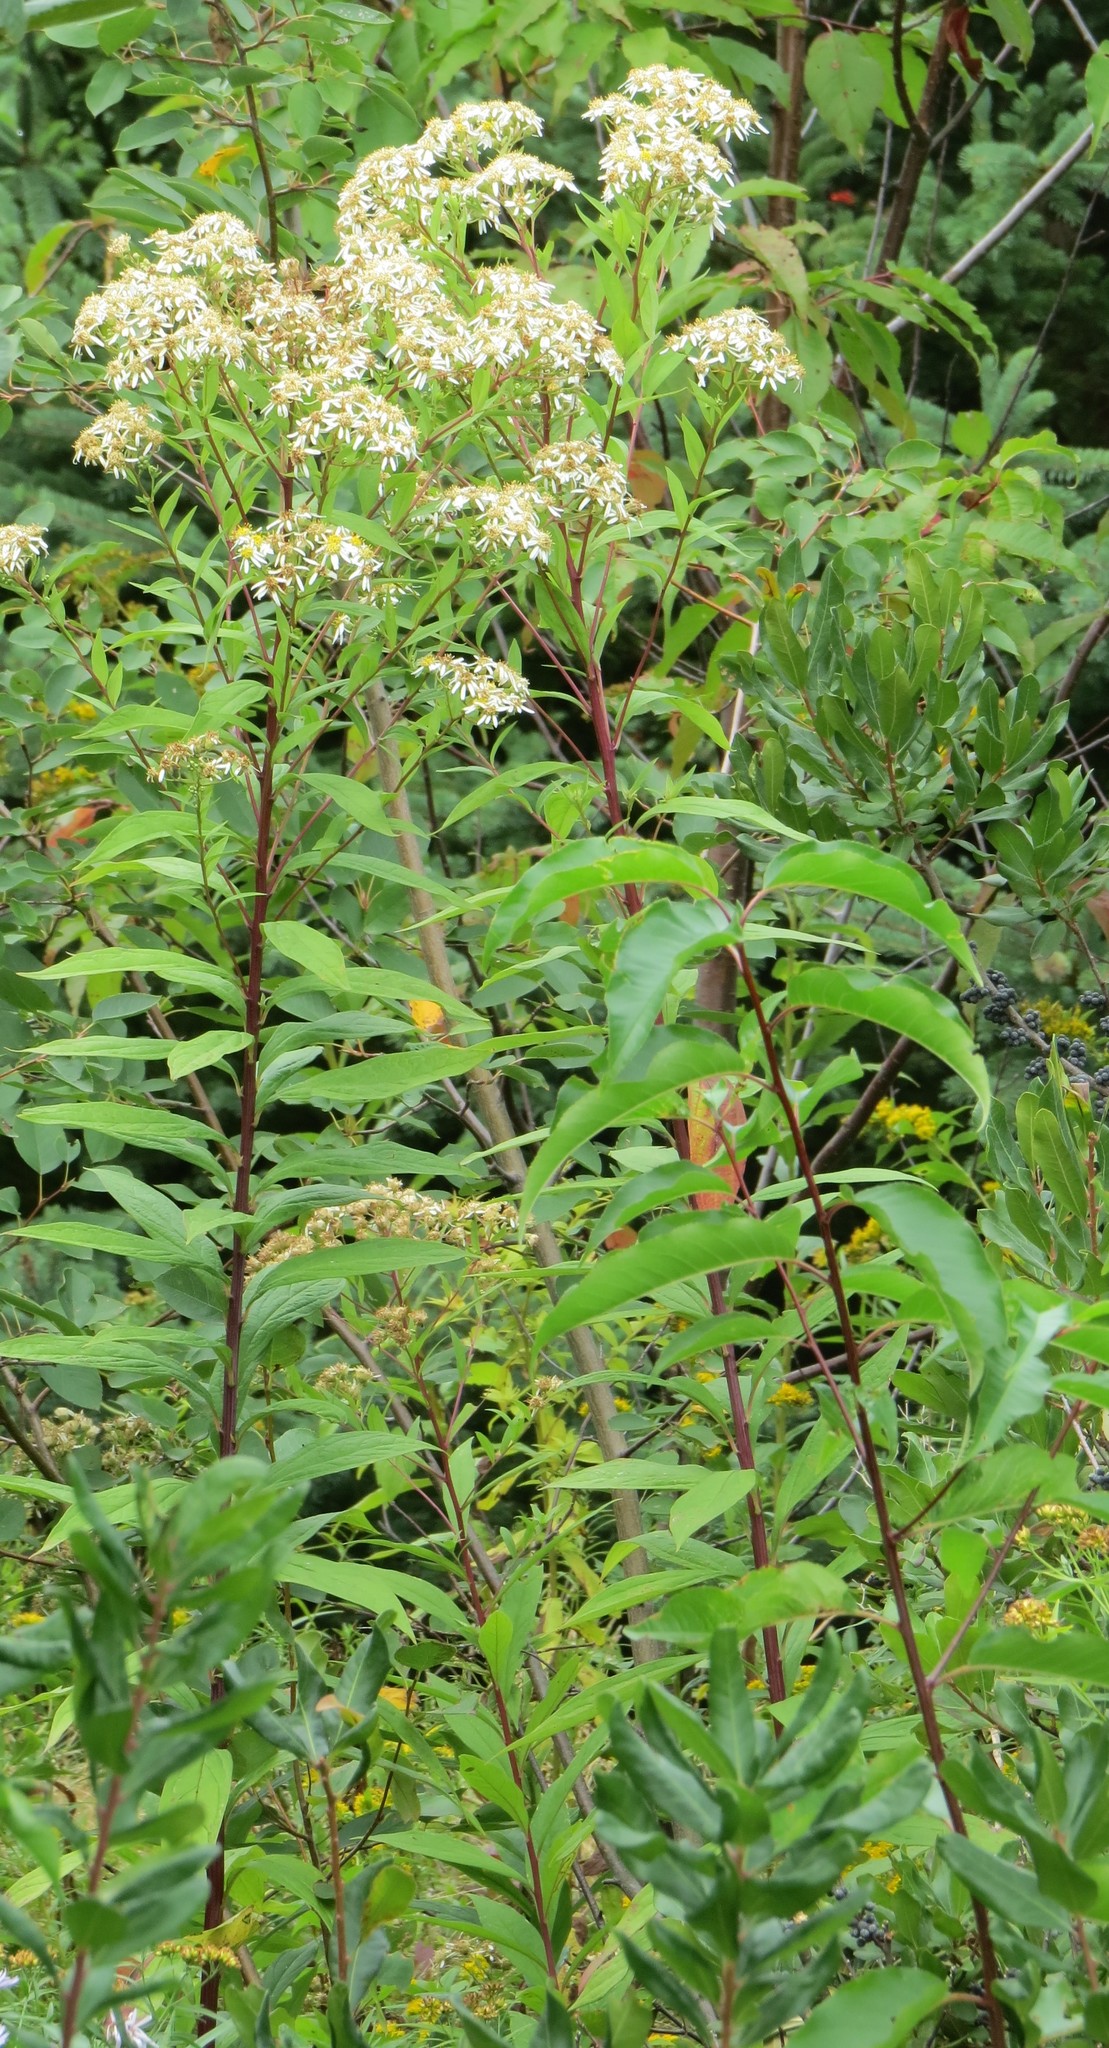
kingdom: Plantae
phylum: Tracheophyta
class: Magnoliopsida
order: Asterales
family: Asteraceae
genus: Doellingeria
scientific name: Doellingeria umbellata
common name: Flat-top white aster
